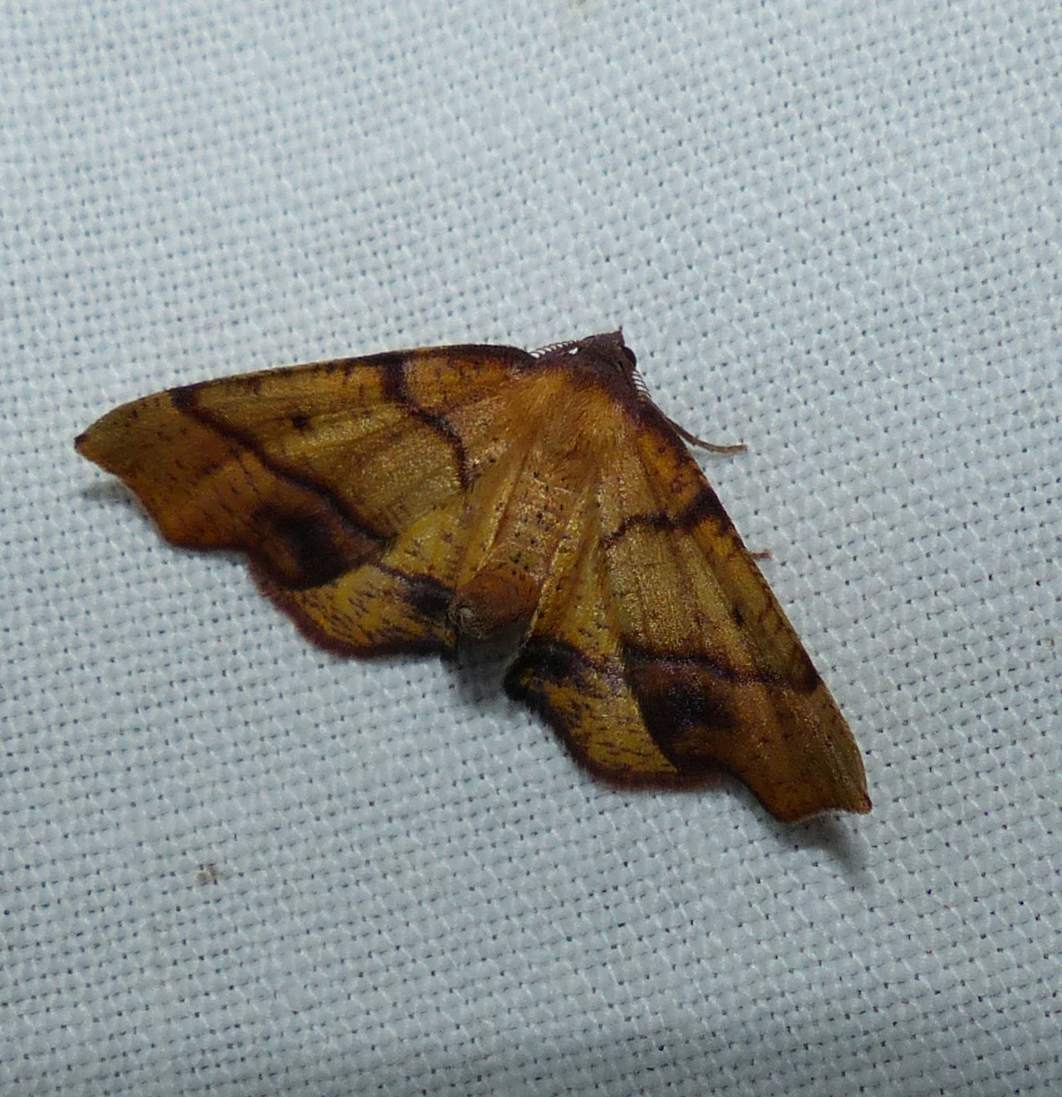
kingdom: Animalia
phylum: Arthropoda
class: Insecta
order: Lepidoptera
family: Geometridae
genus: Plagodis
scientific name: Plagodis phlogosaria
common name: Straight-lined plagodis
